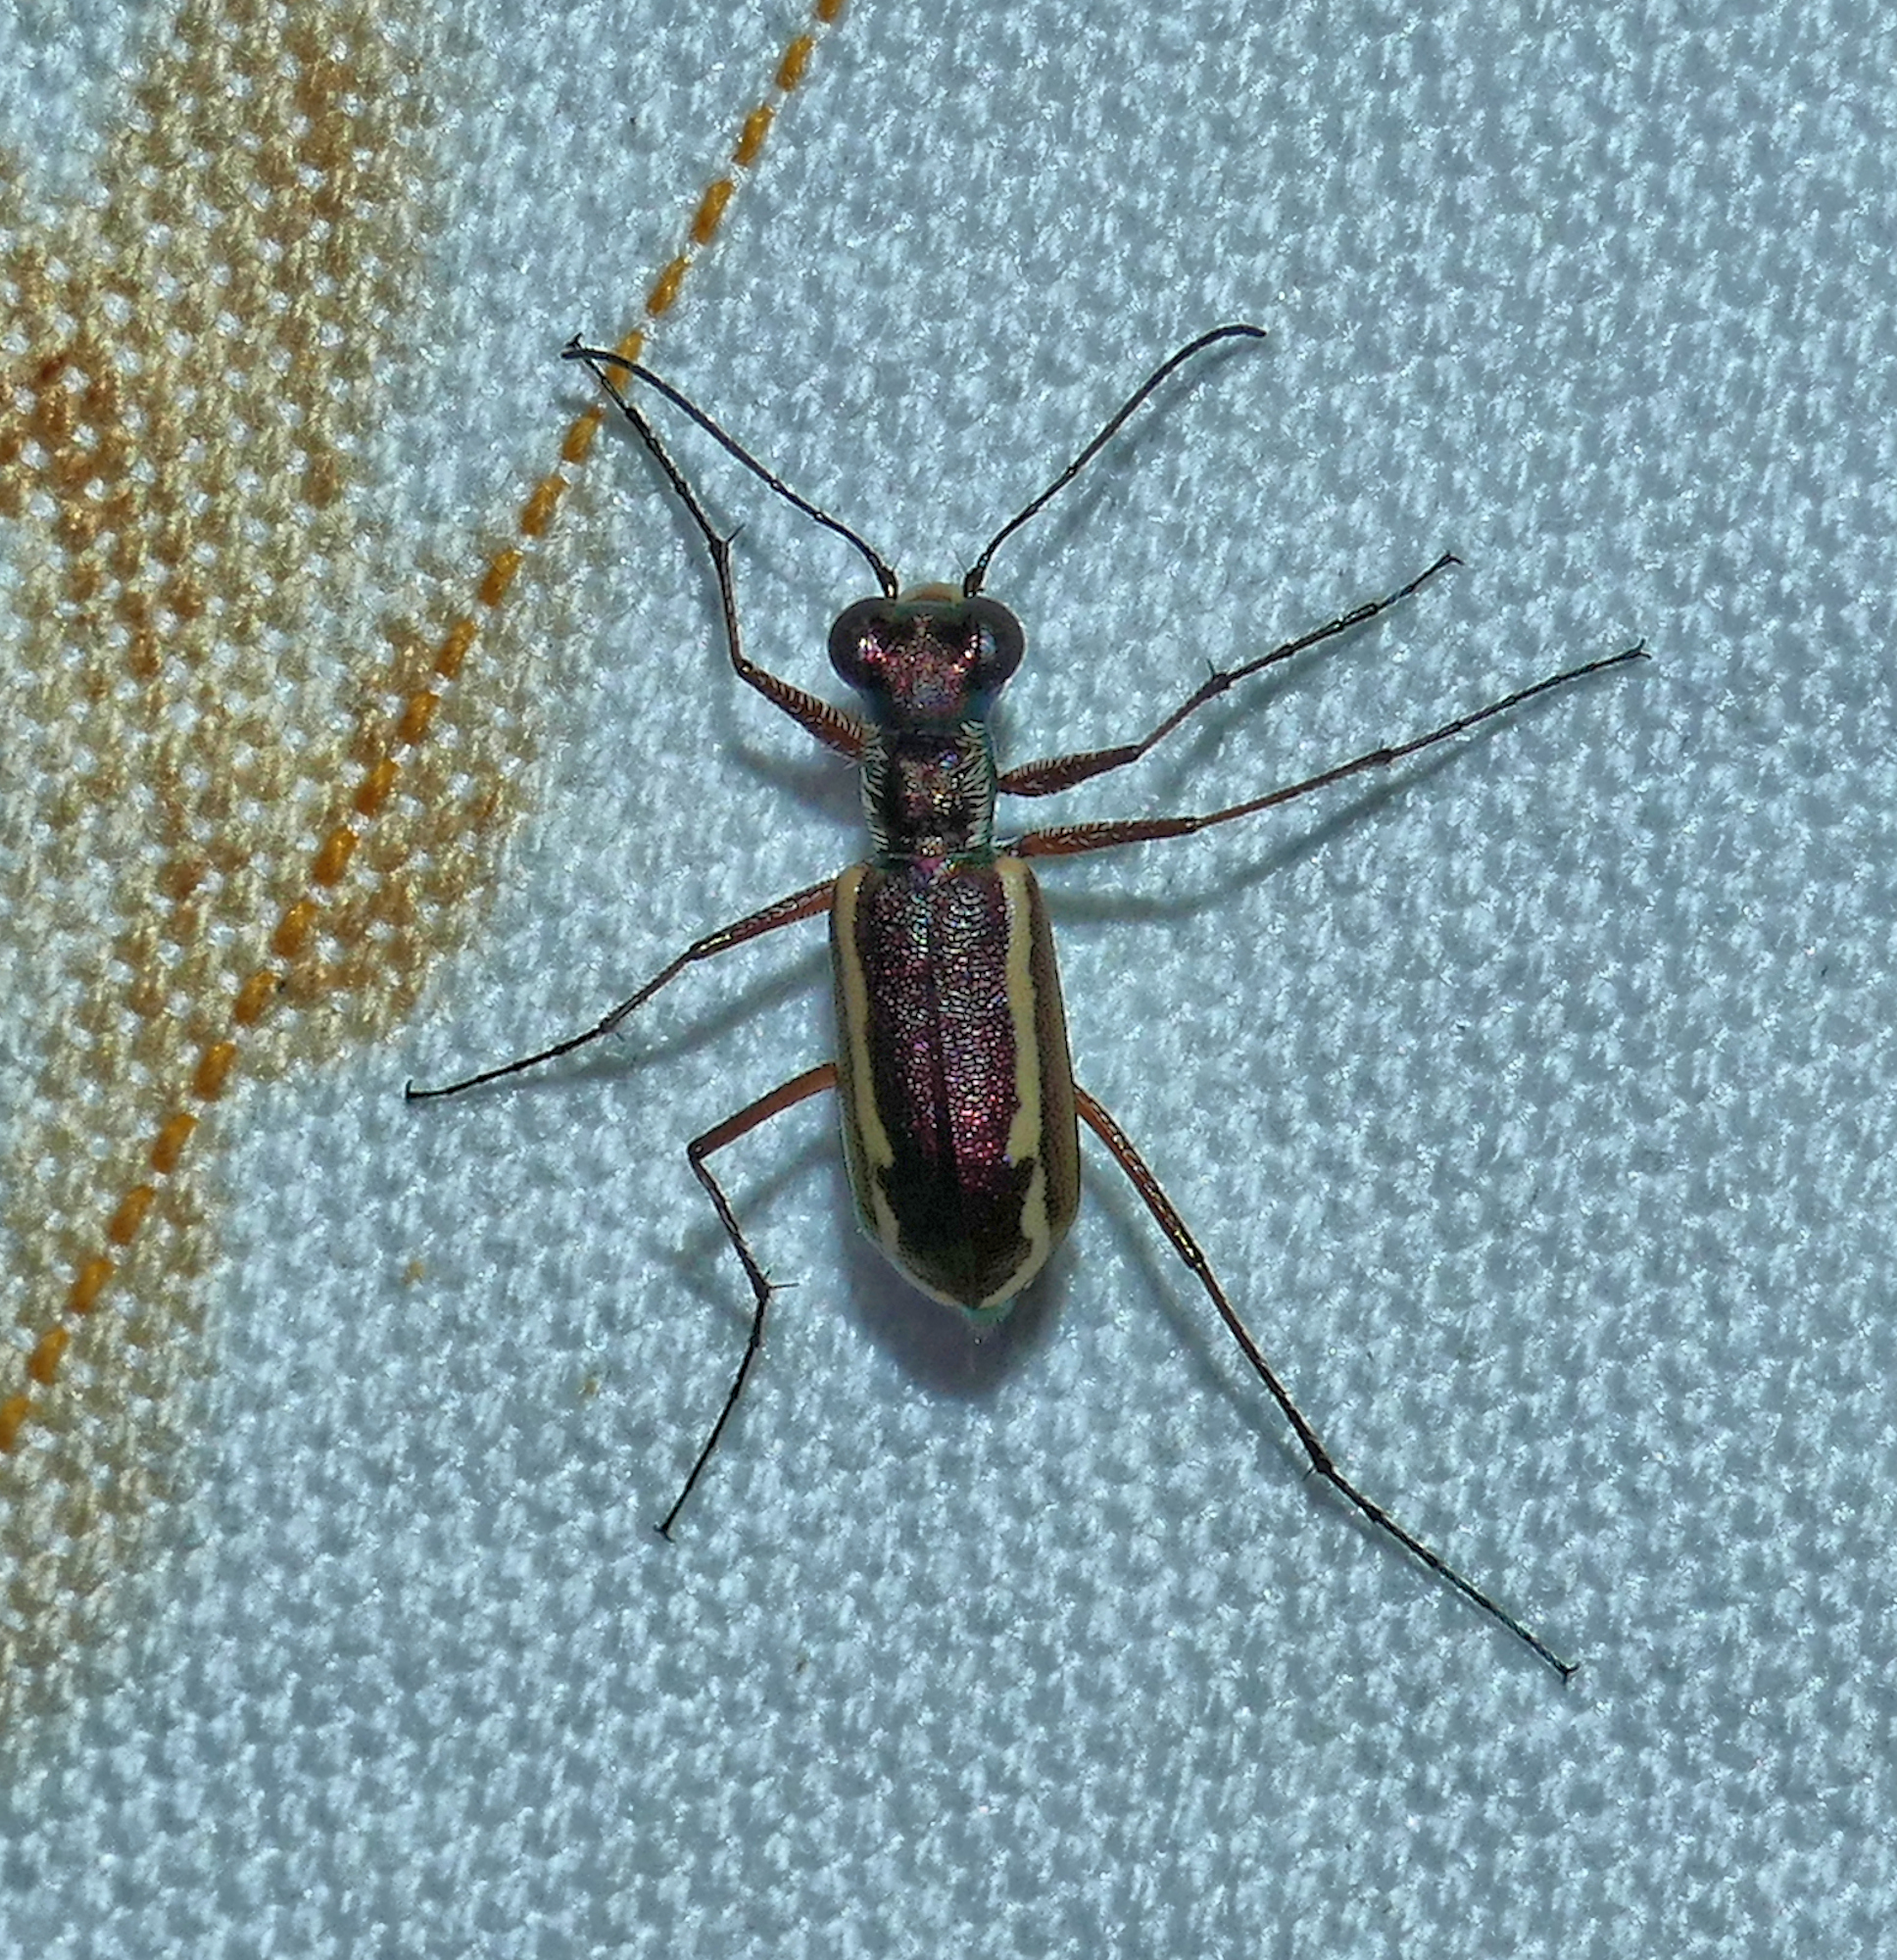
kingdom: Animalia
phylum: Arthropoda
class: Insecta
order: Coleoptera
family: Carabidae
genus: Cylindera
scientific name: Cylindera lemniscata
